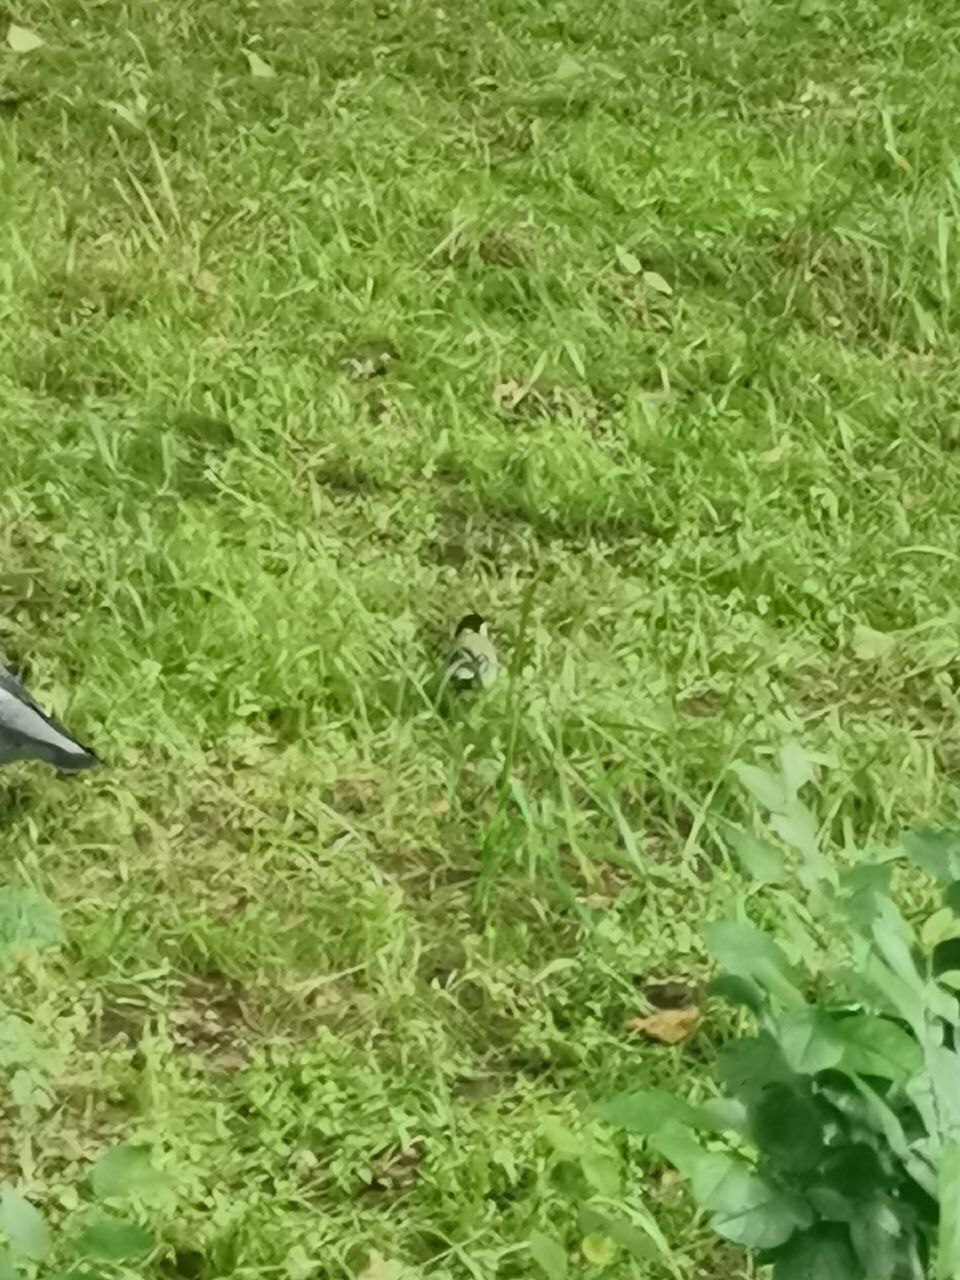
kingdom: Animalia
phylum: Chordata
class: Aves
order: Passeriformes
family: Paridae
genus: Parus
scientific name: Parus major
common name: Great tit
